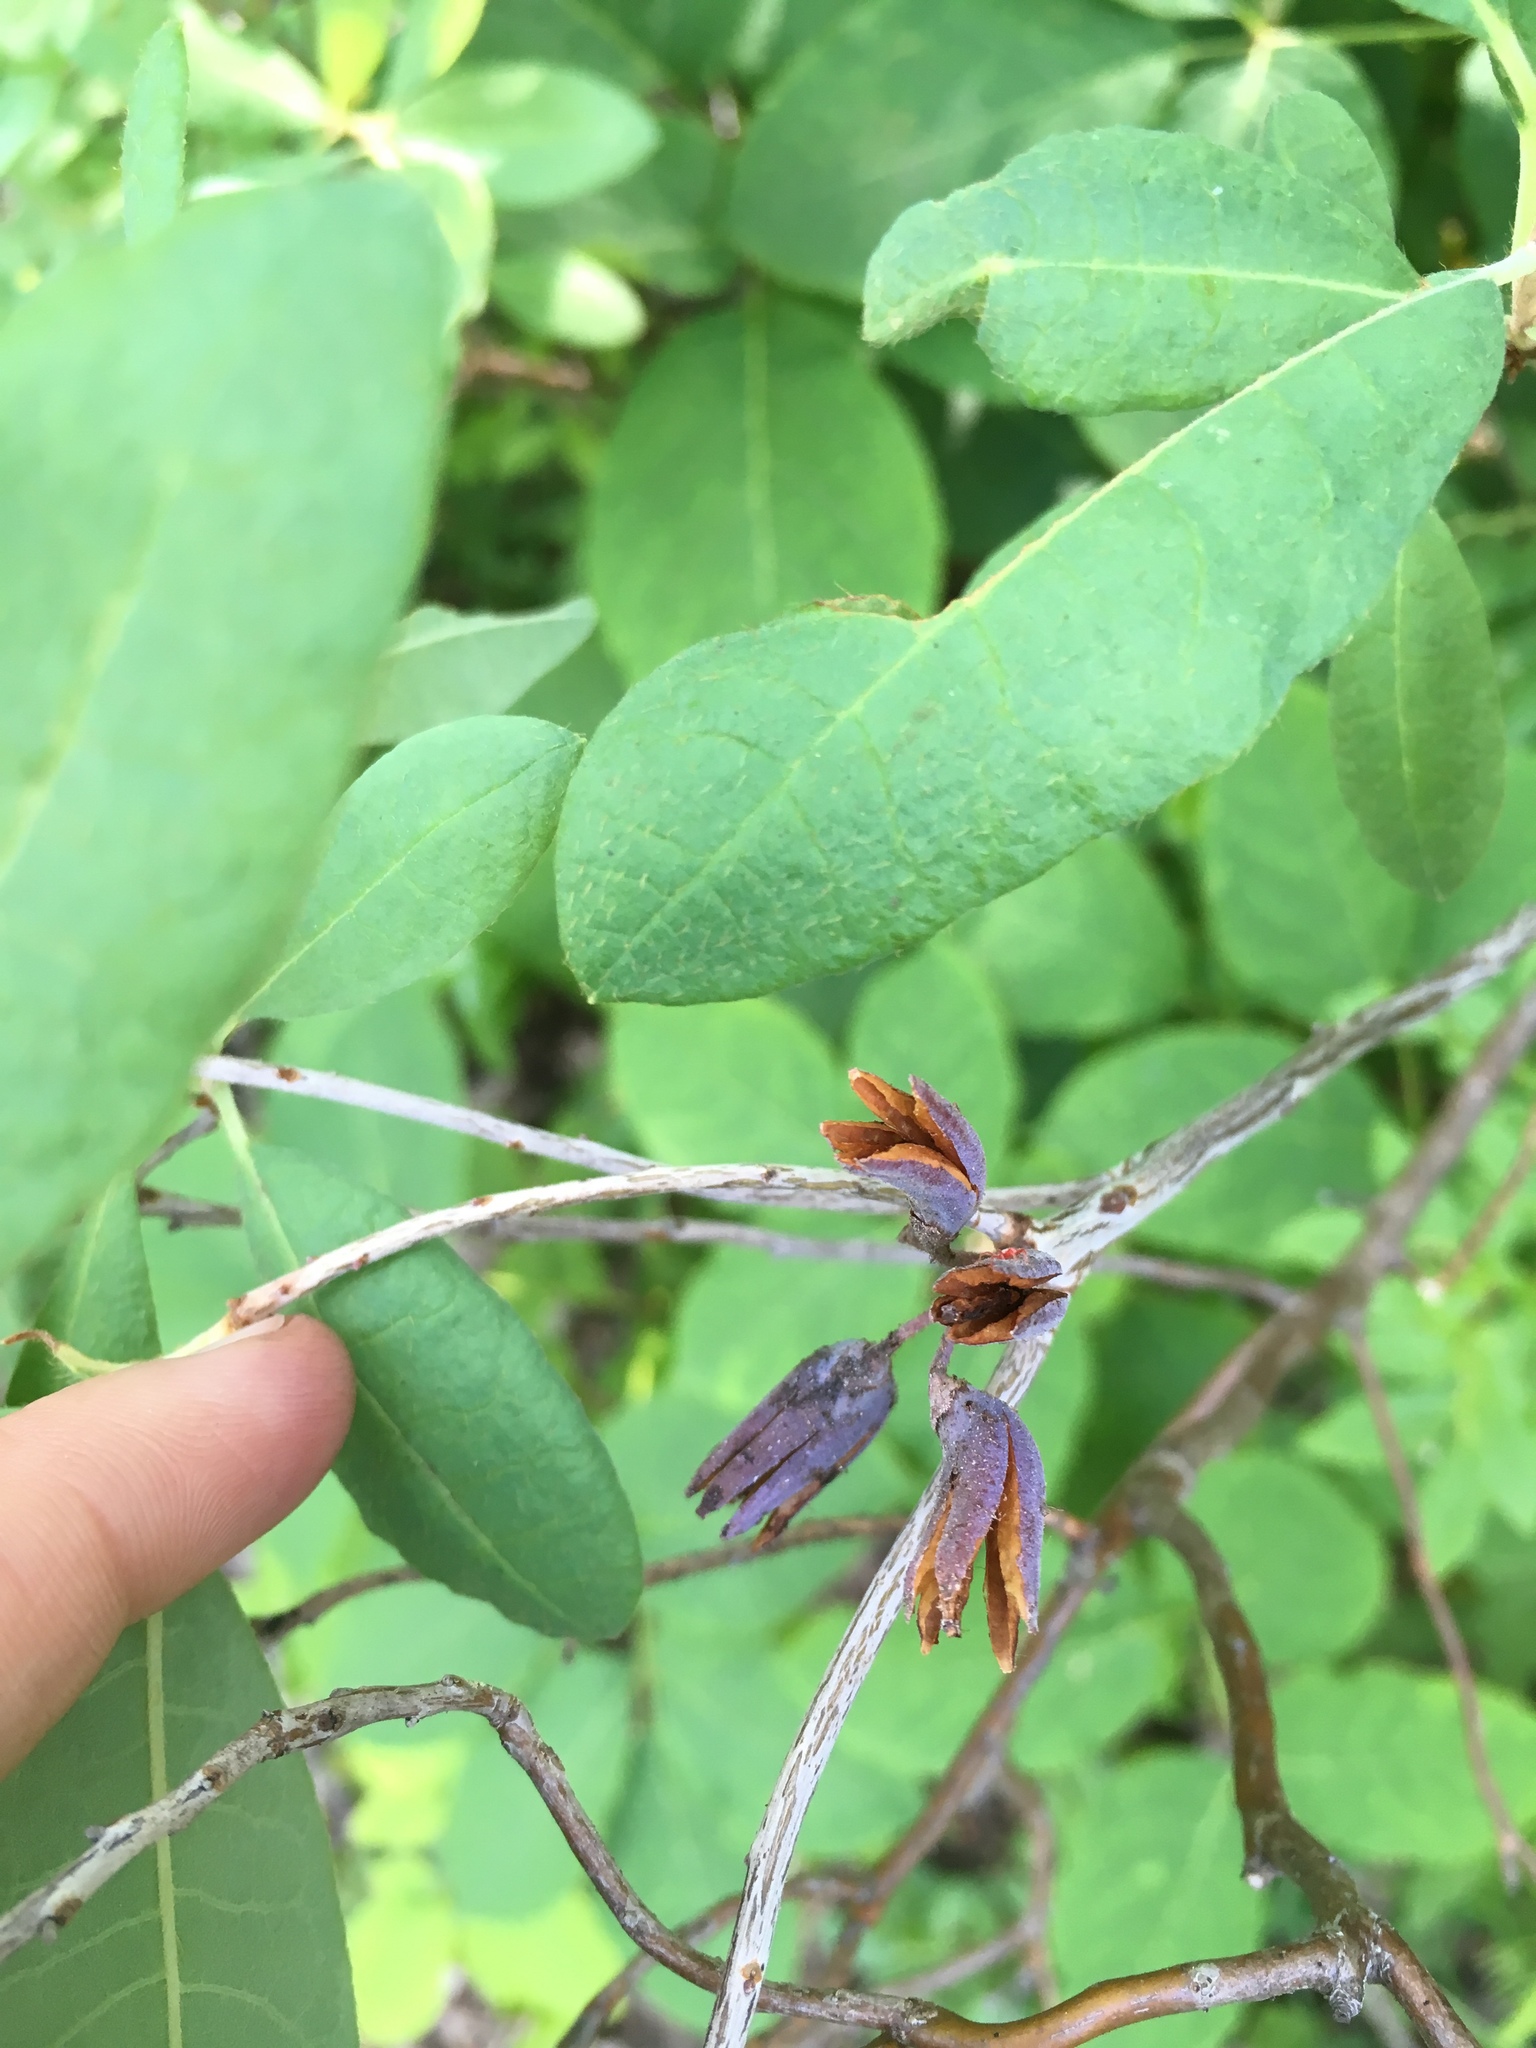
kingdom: Plantae
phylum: Tracheophyta
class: Magnoliopsida
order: Ericales
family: Ericaceae
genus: Rhododendron
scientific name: Rhododendron canadense
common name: Rhodora
